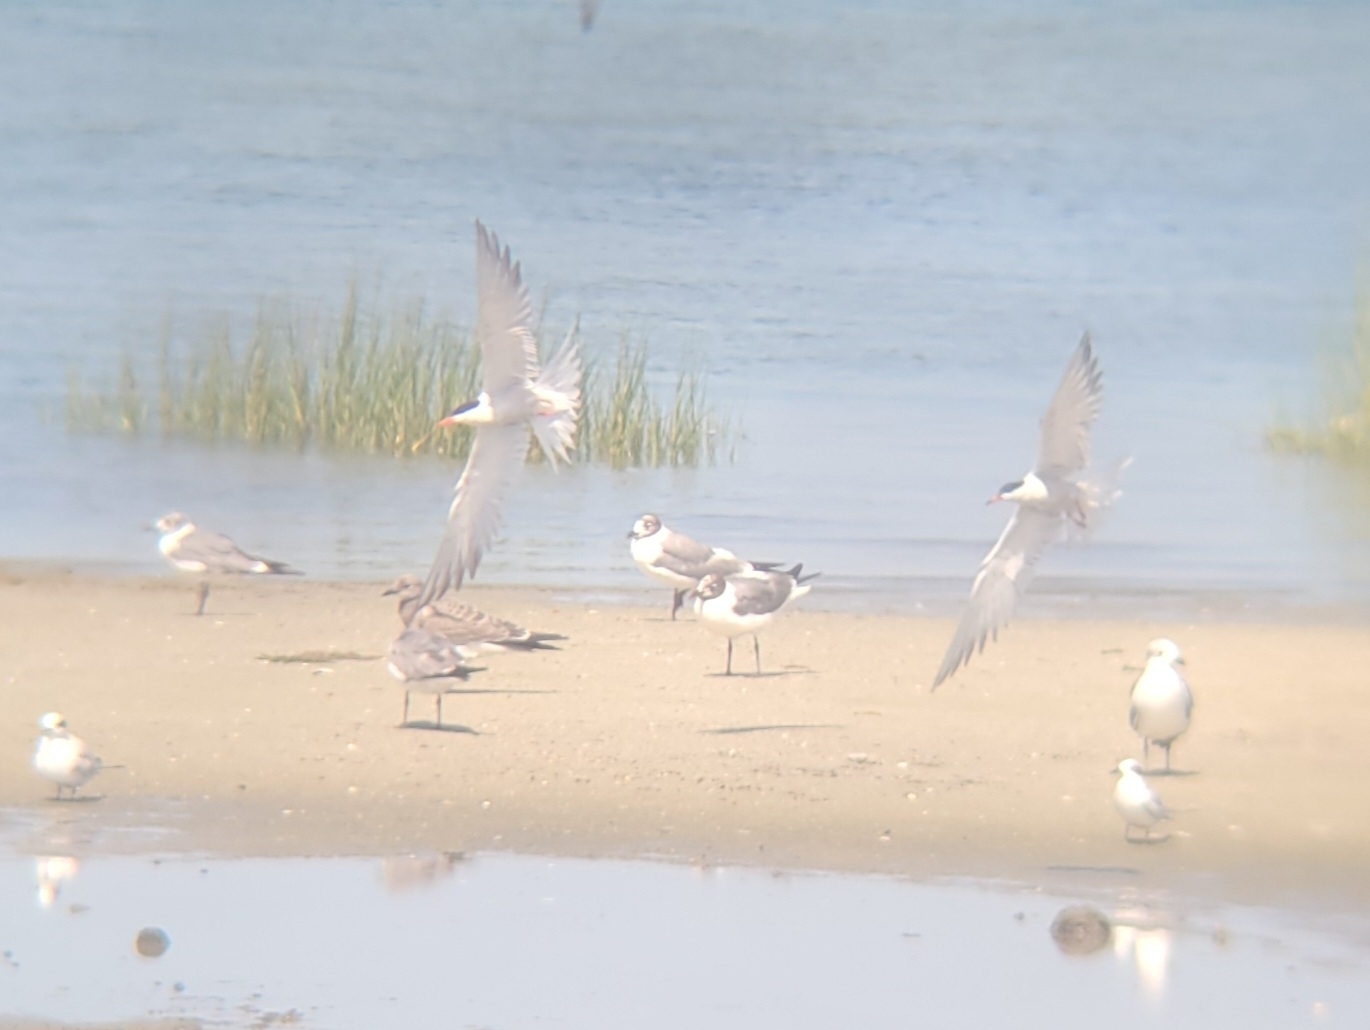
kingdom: Animalia
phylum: Chordata
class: Aves
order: Charadriiformes
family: Laridae
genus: Sterna
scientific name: Sterna hirundo
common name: Common tern
